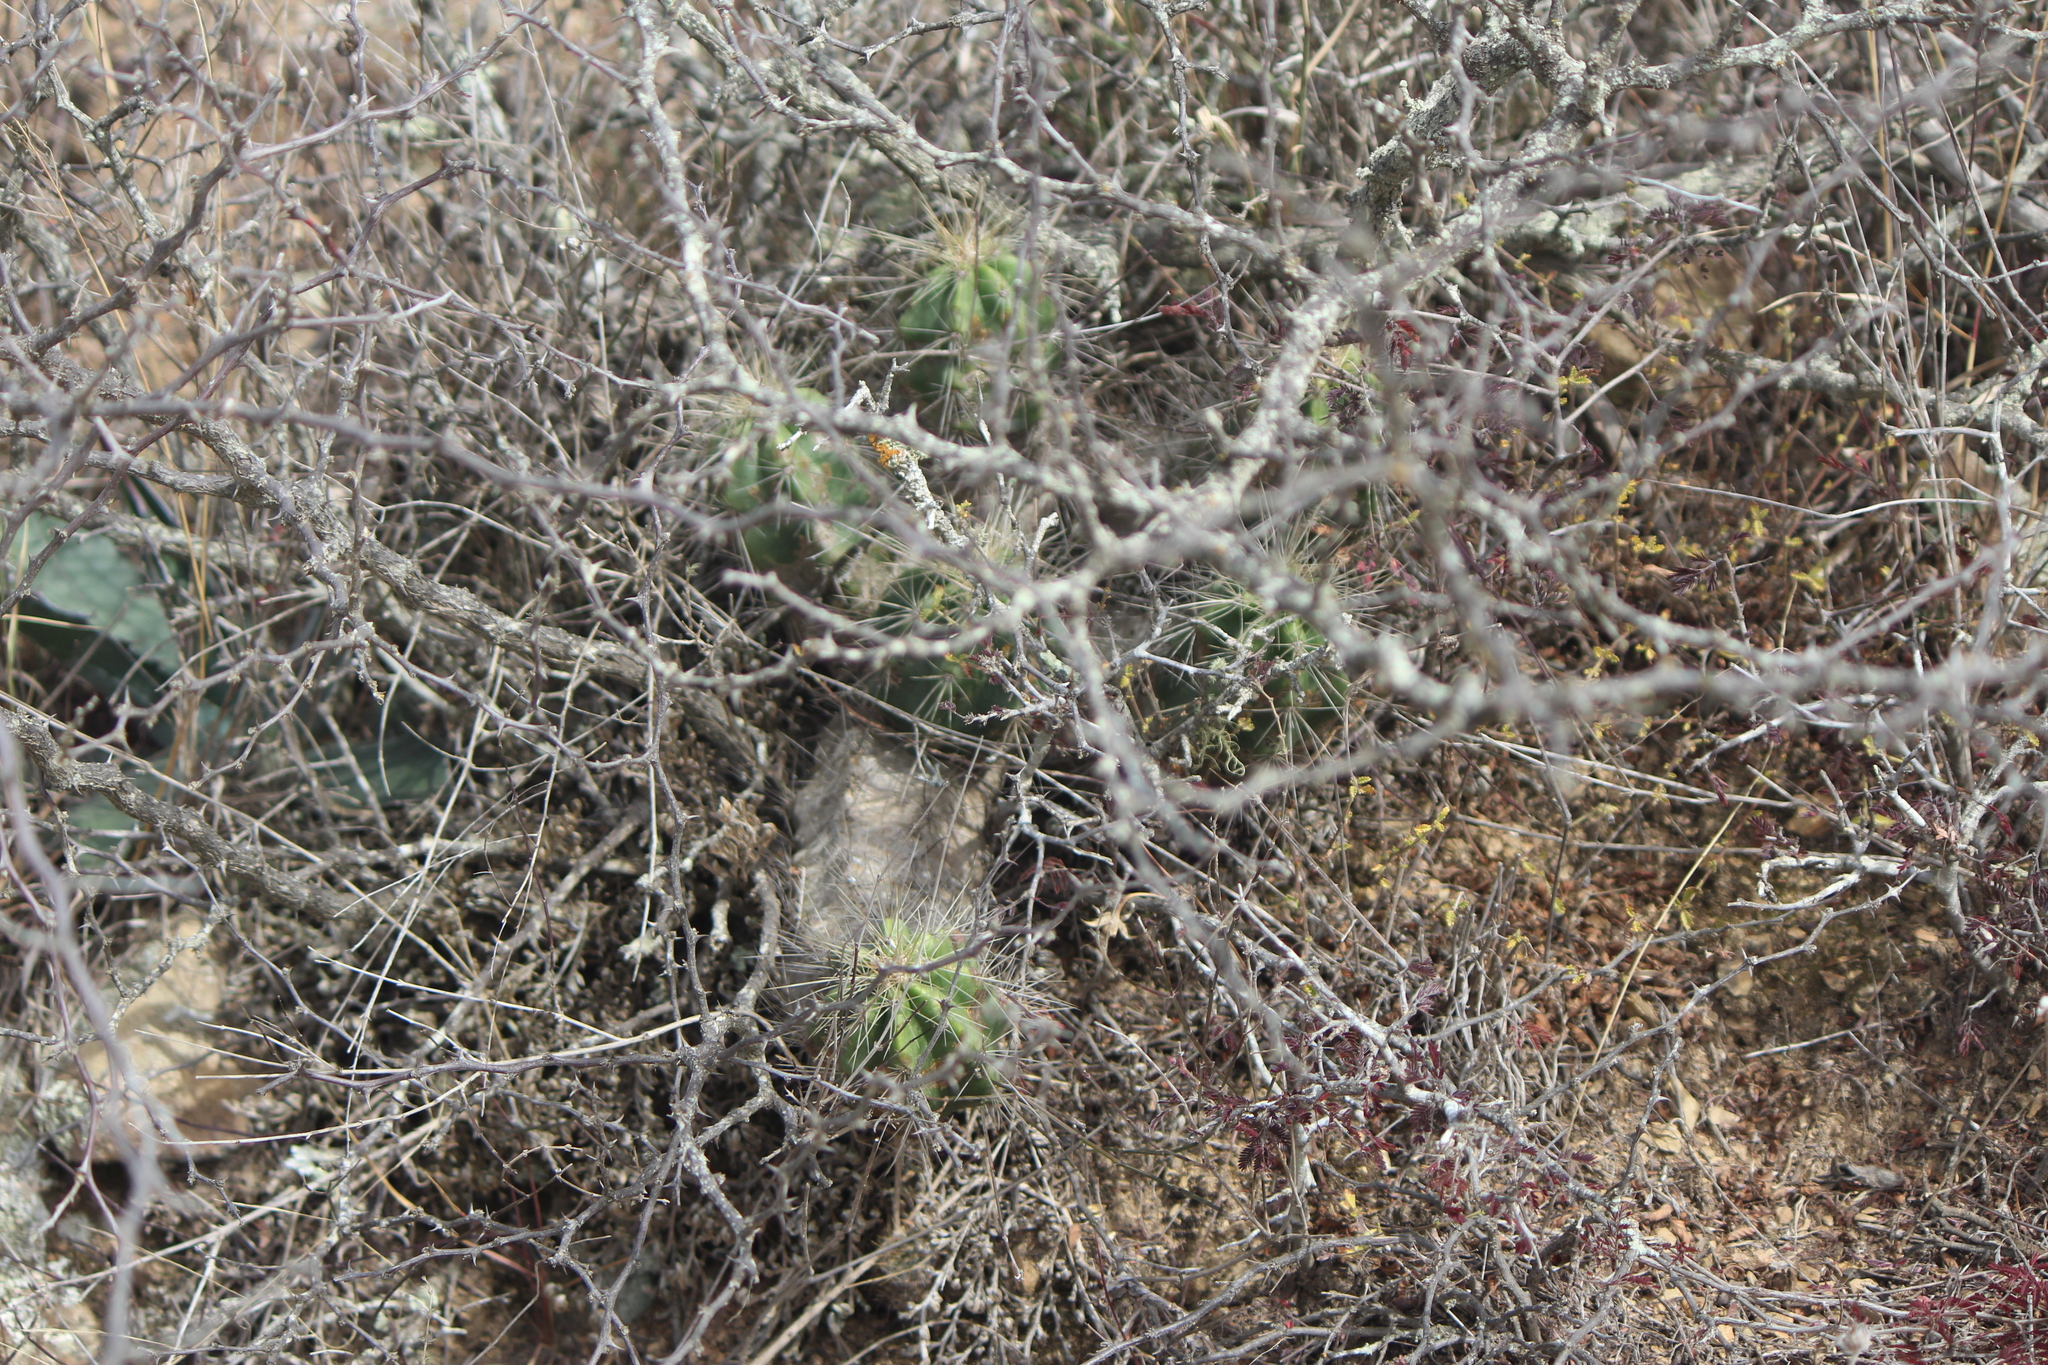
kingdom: Plantae
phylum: Tracheophyta
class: Magnoliopsida
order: Caryophyllales
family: Cactaceae
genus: Echinocereus
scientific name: Echinocereus cinerascens
